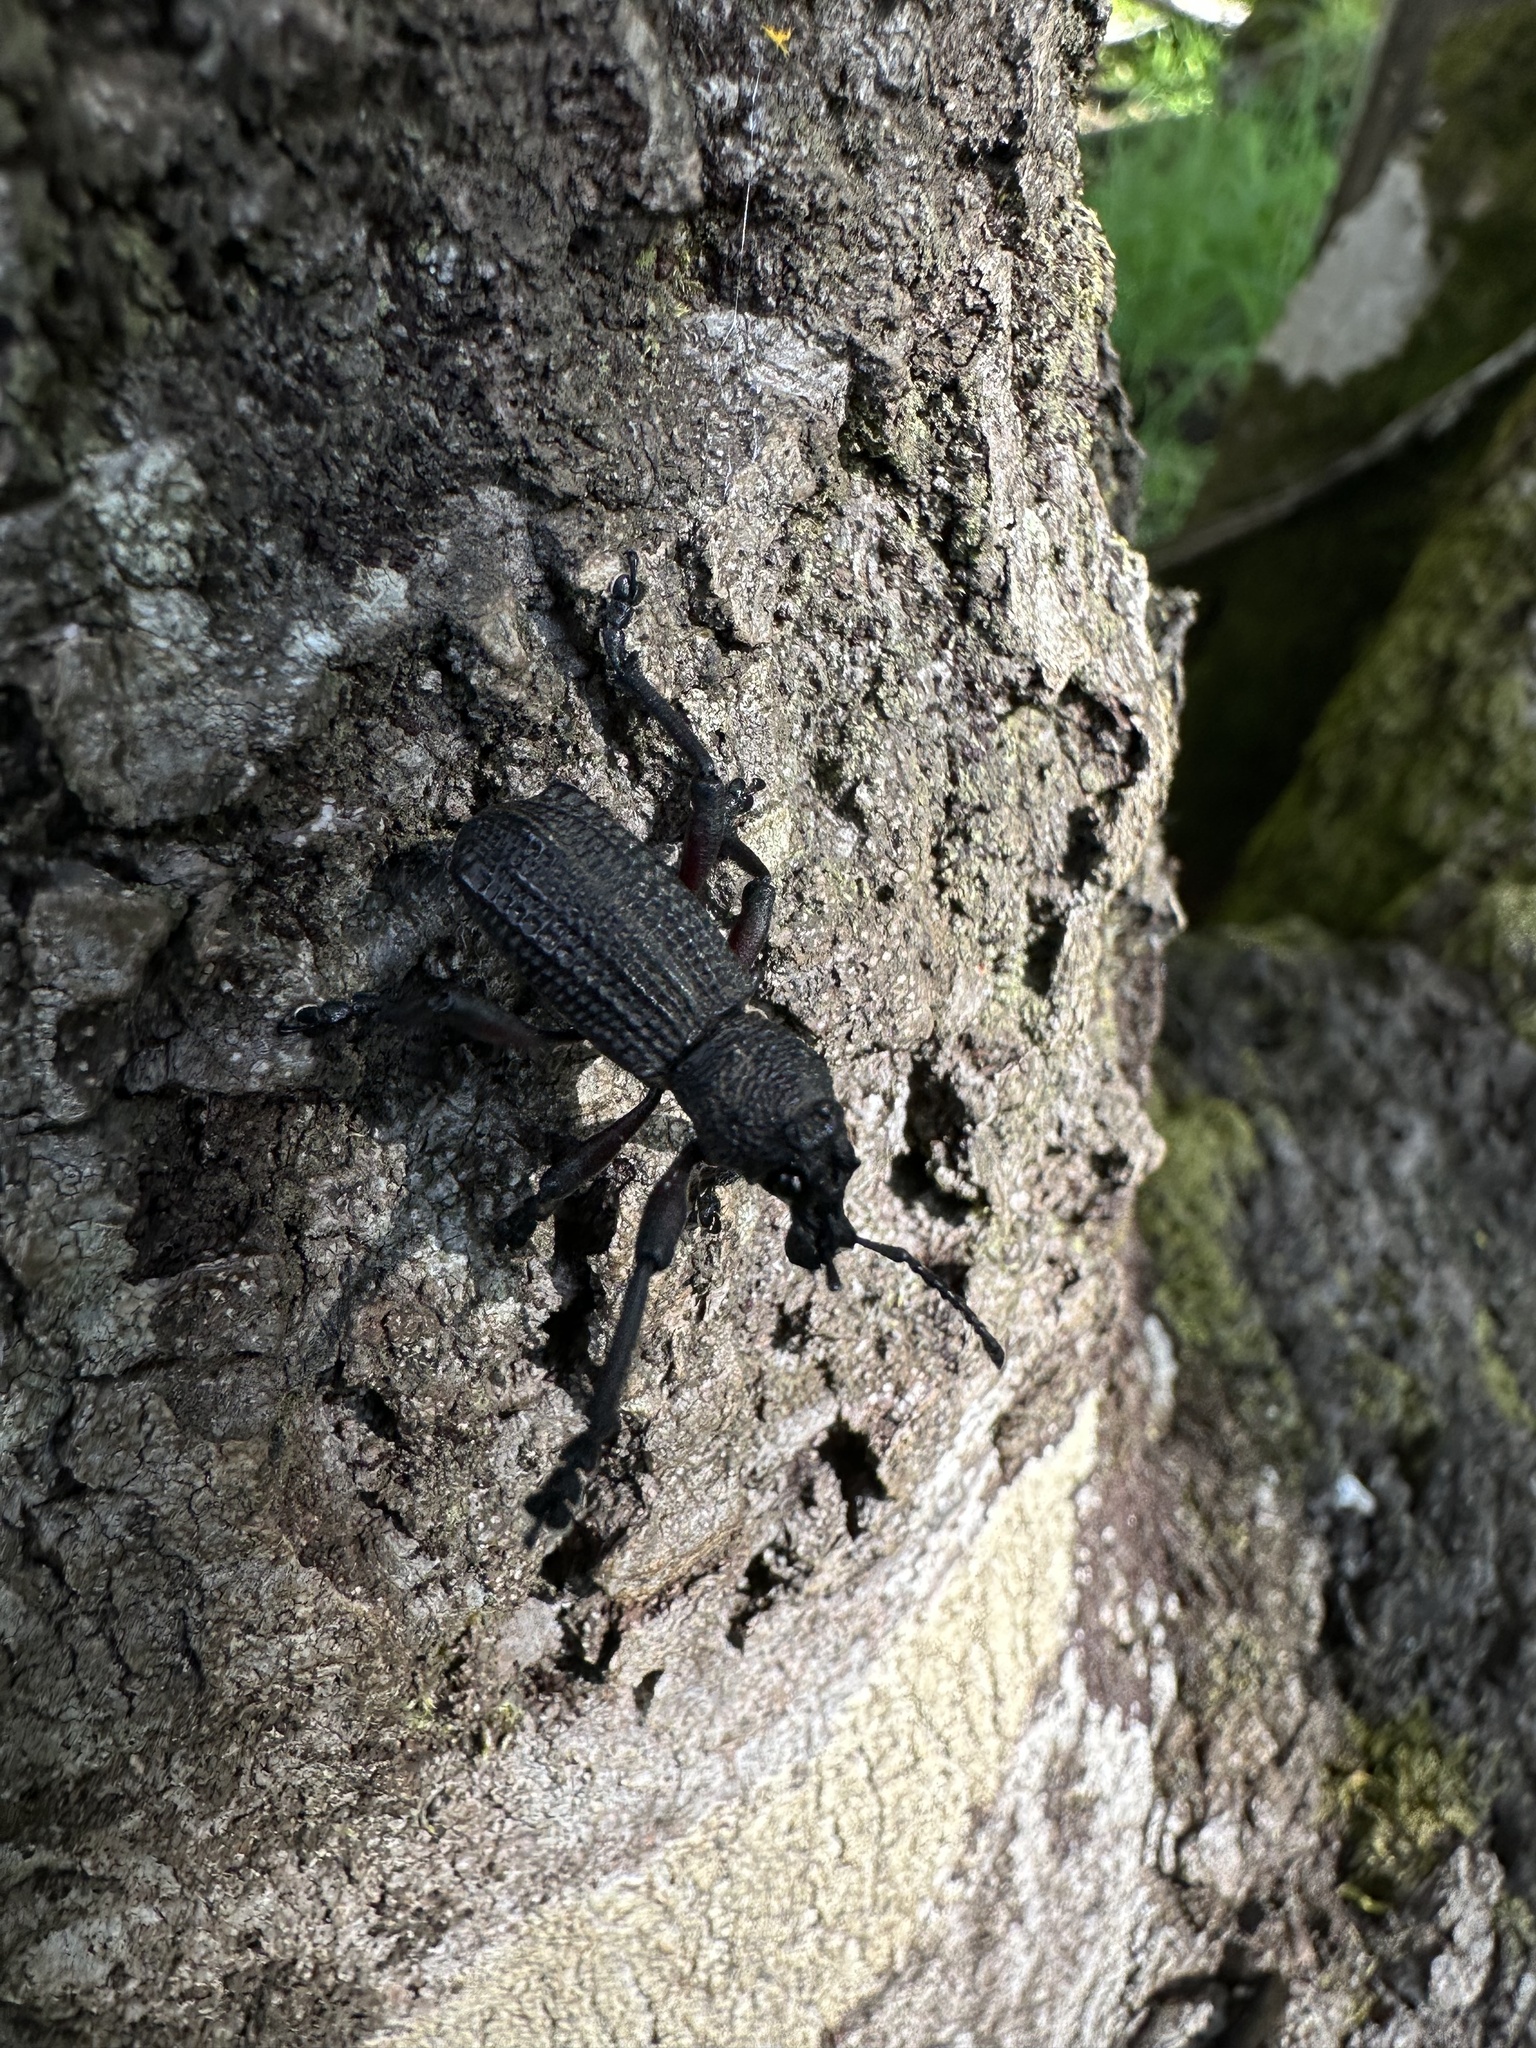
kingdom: Animalia
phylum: Arthropoda
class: Insecta
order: Coleoptera
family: Curculionidae
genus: Aegorhinus
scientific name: Aegorhinus
